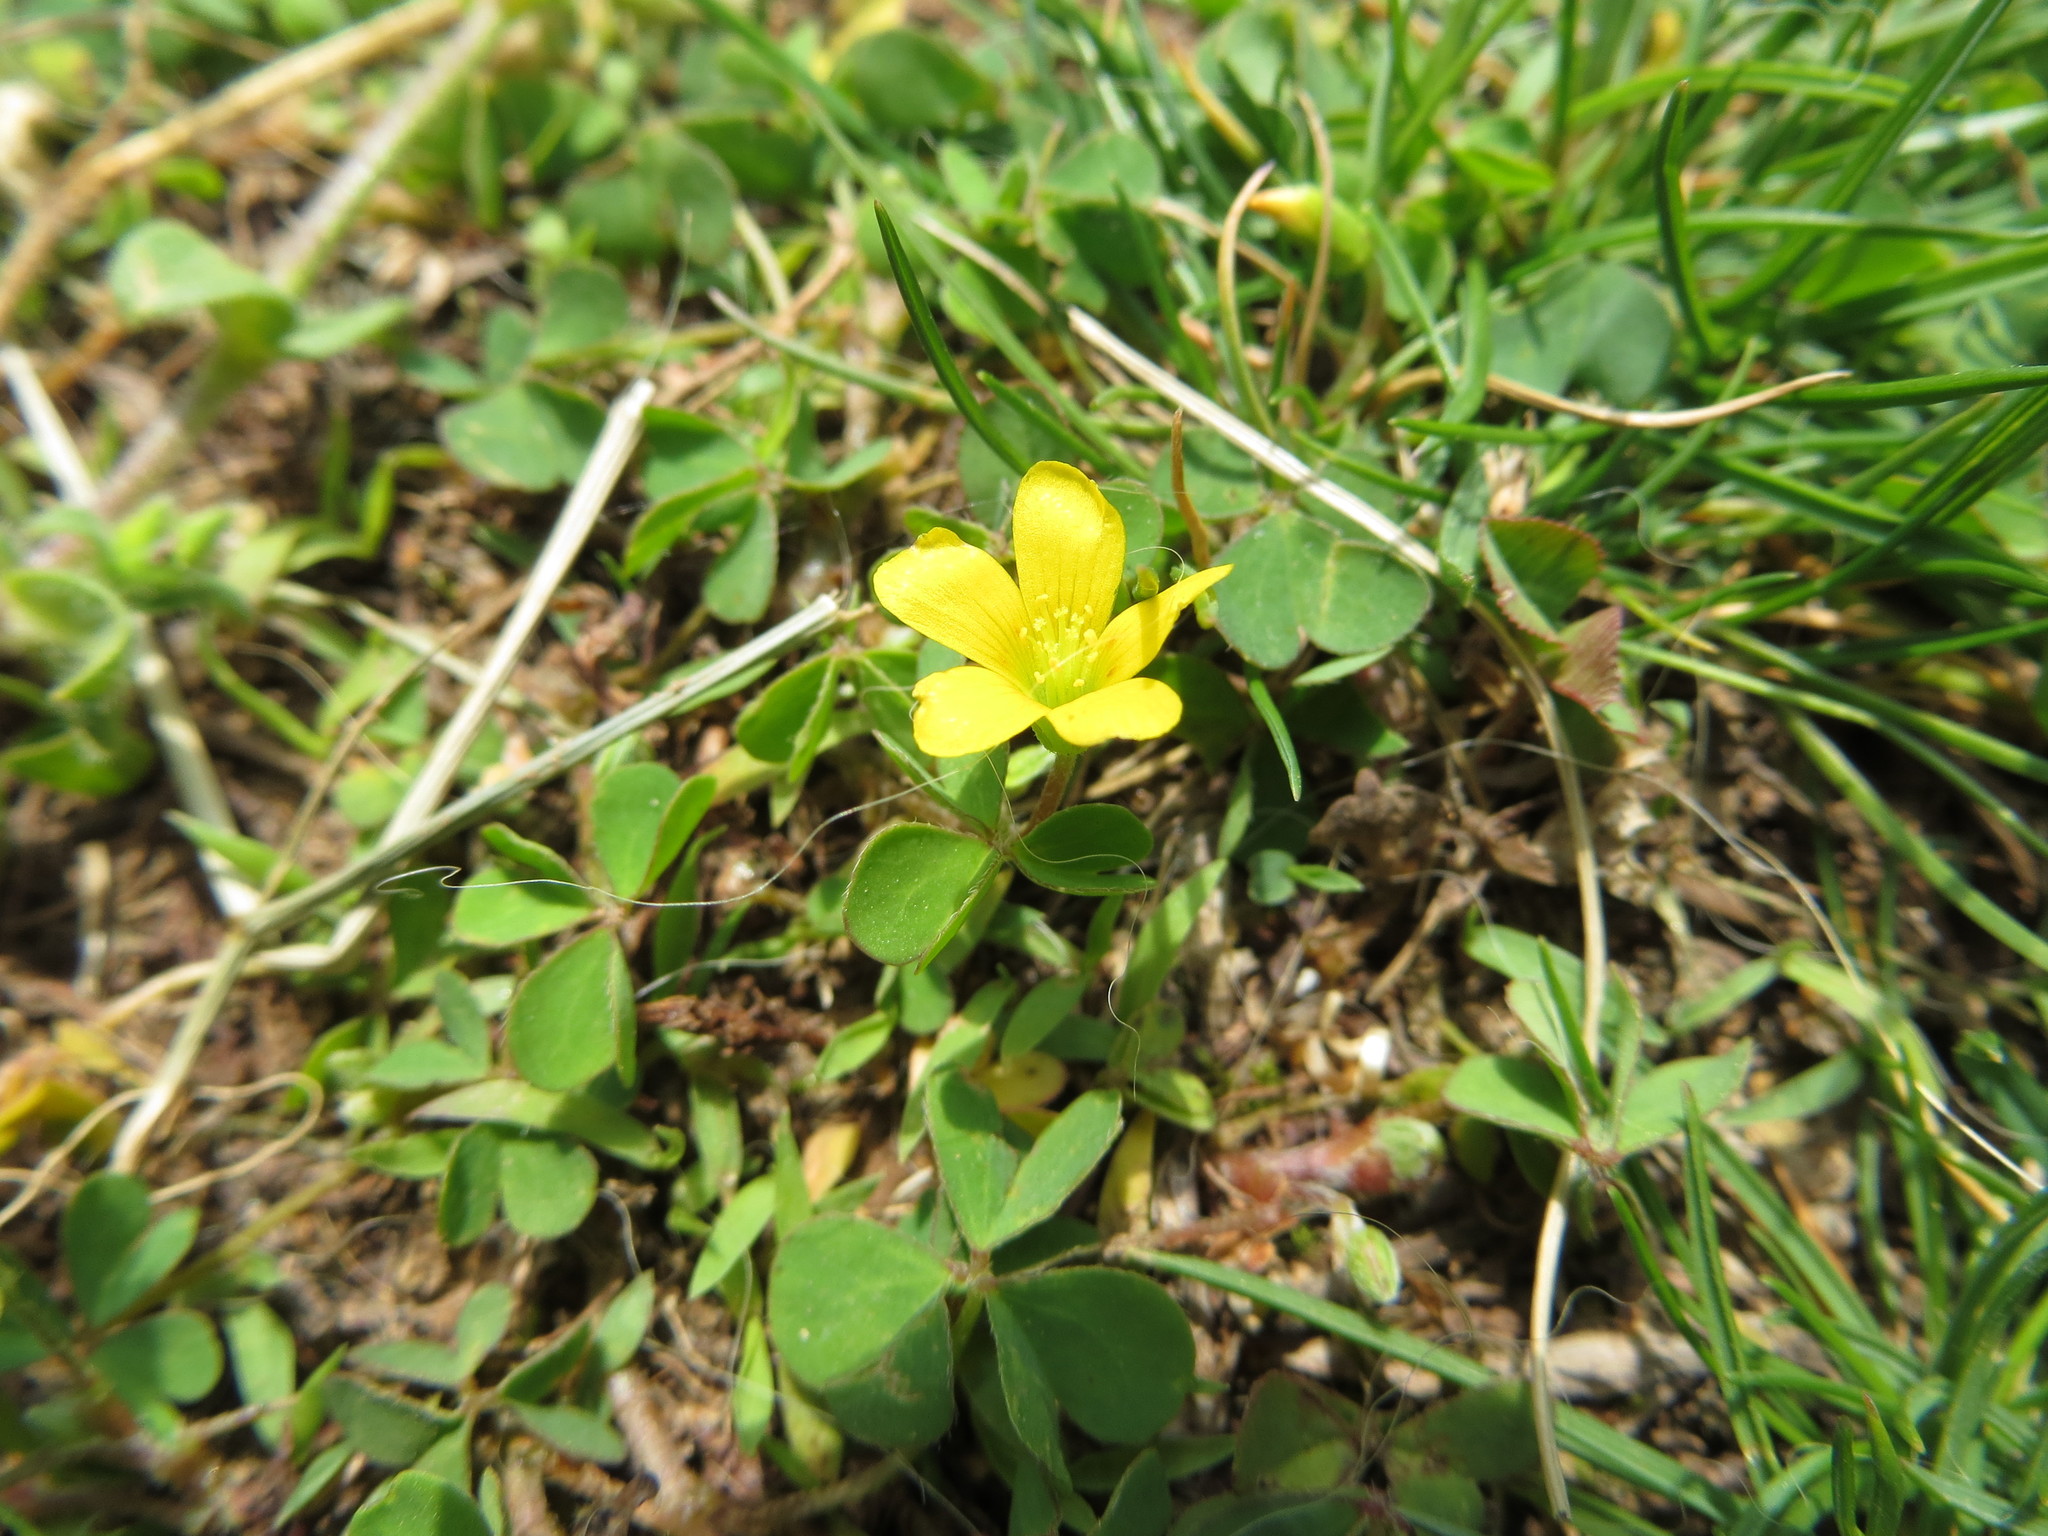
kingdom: Plantae
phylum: Tracheophyta
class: Magnoliopsida
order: Oxalidales
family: Oxalidaceae
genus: Oxalis
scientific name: Oxalis corniculata
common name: Procumbent yellow-sorrel
